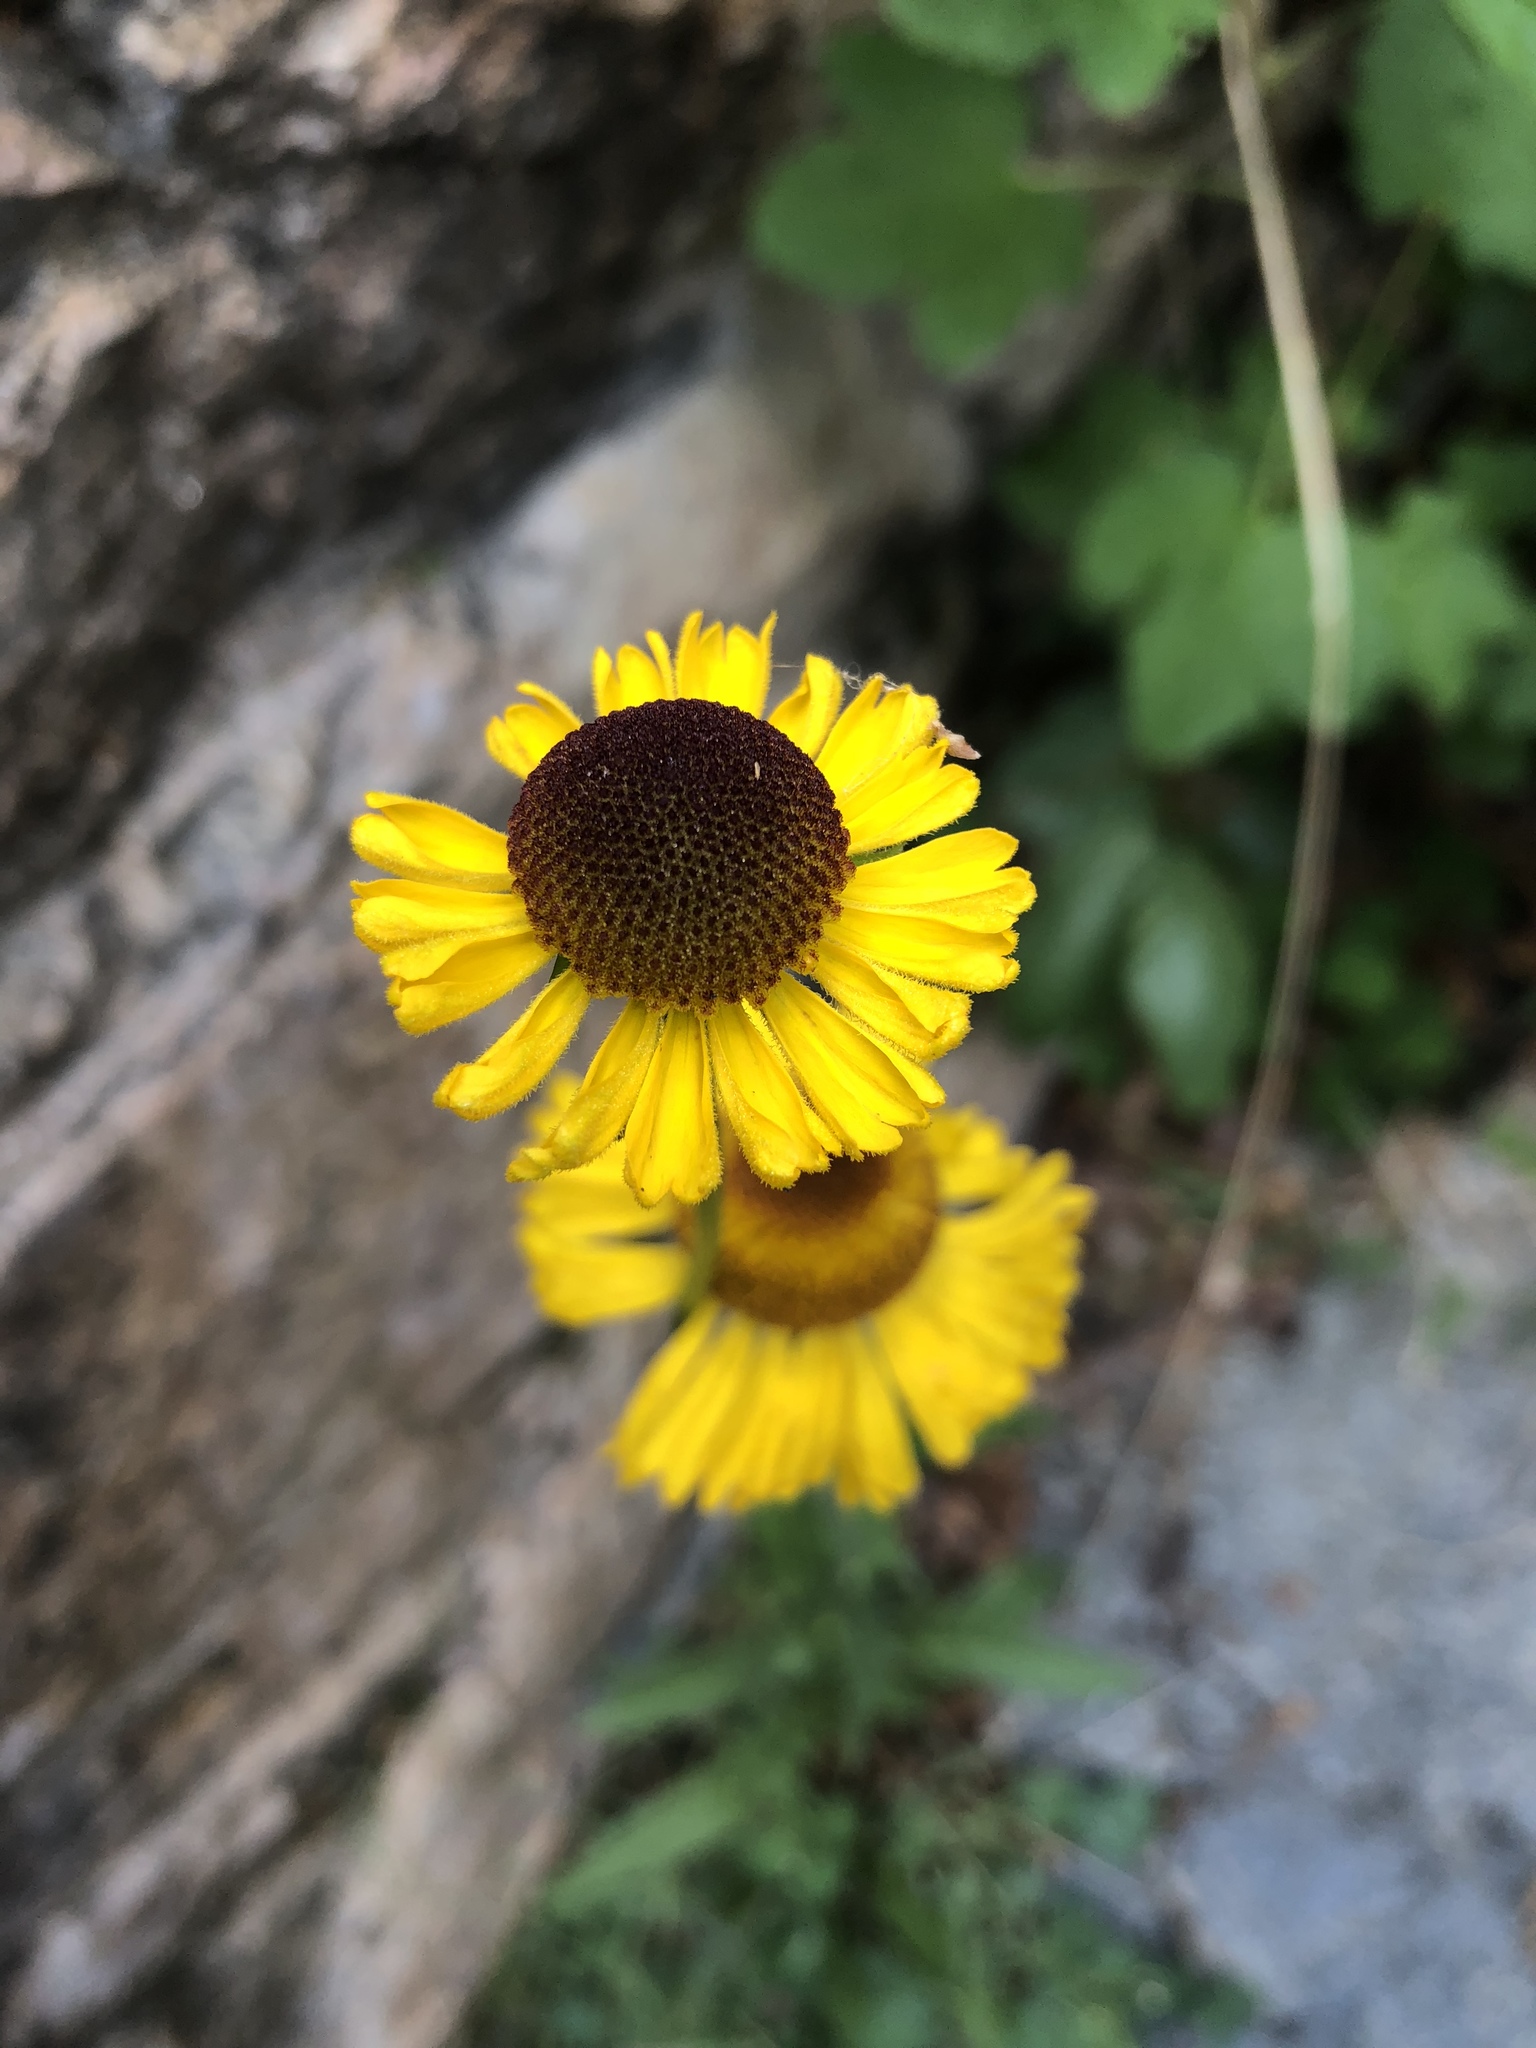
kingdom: Plantae
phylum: Tracheophyta
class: Magnoliopsida
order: Asterales
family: Asteraceae
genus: Helenium
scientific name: Helenium bigelovii
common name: Bigelow's sneezeweed
